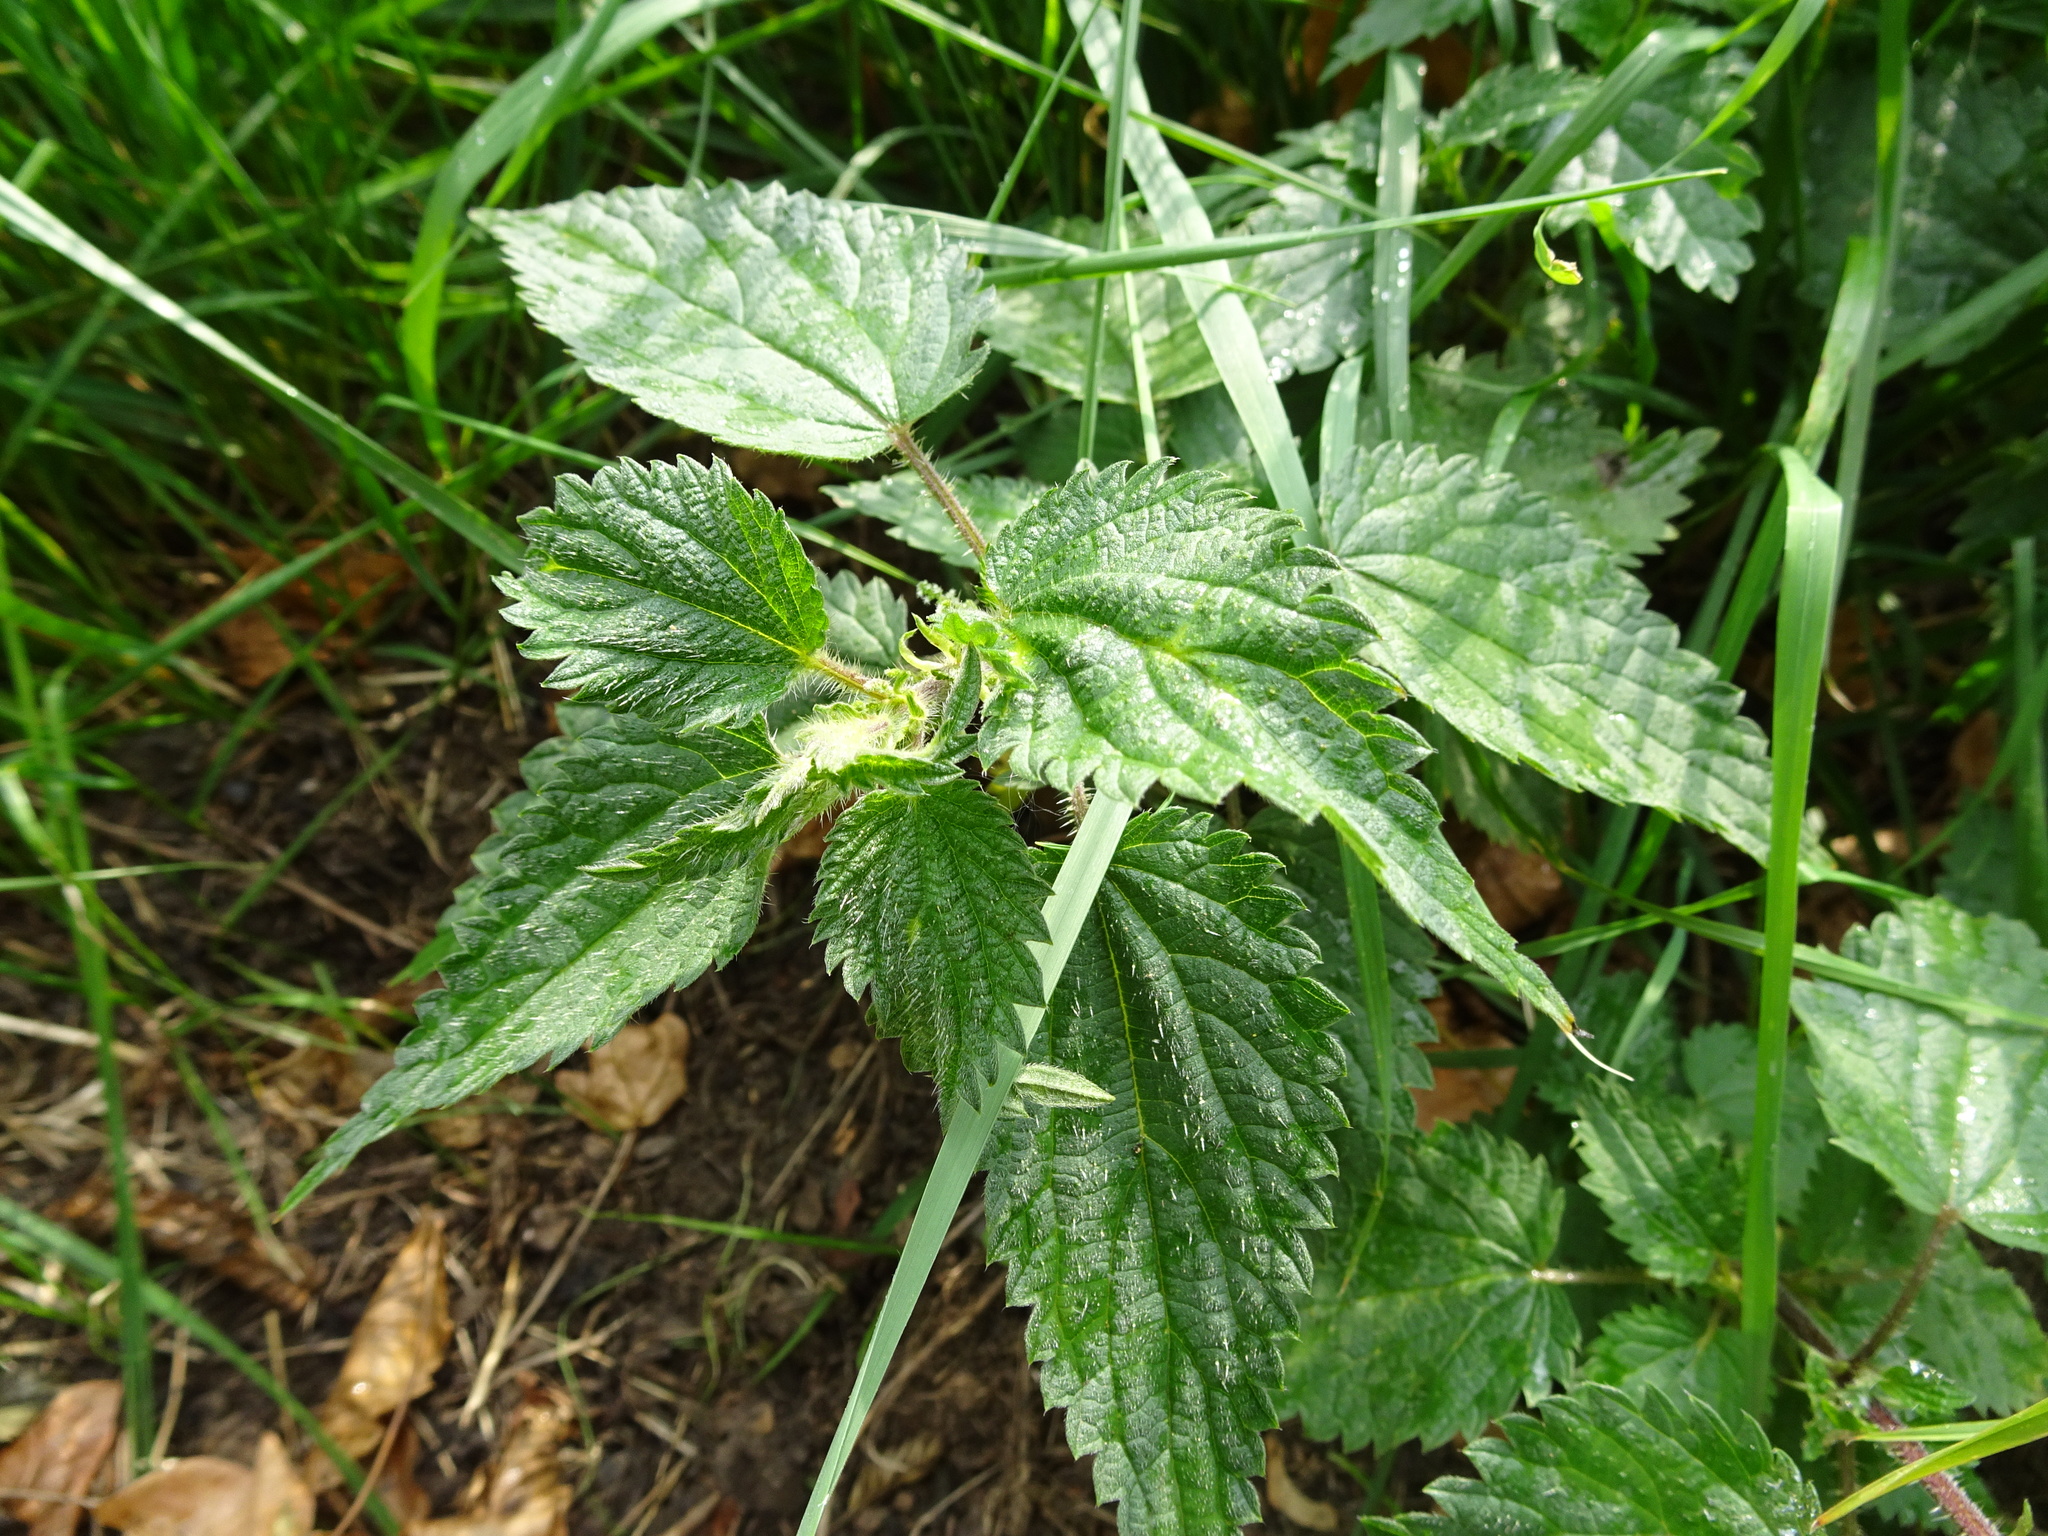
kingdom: Plantae
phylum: Tracheophyta
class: Magnoliopsida
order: Rosales
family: Urticaceae
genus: Urtica
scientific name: Urtica dioica
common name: Common nettle
